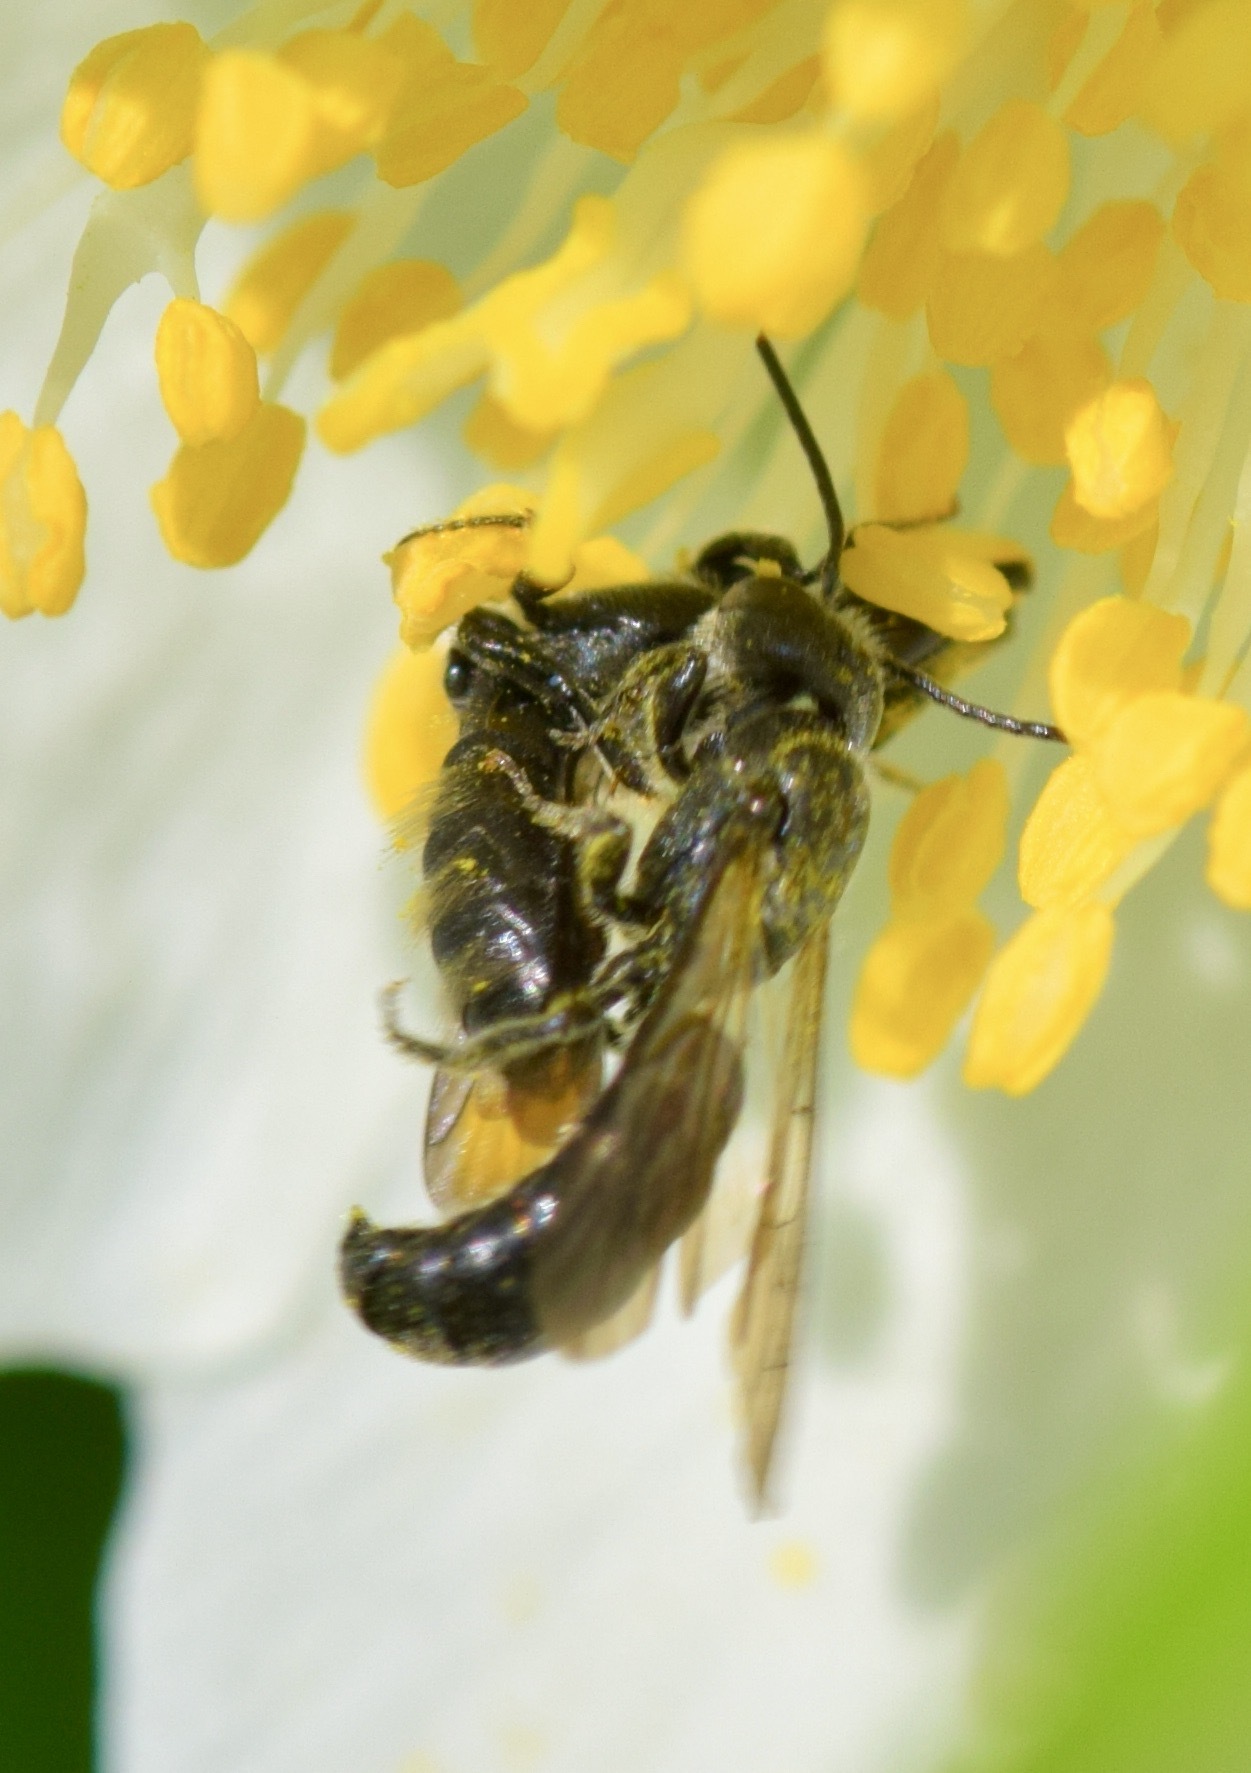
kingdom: Animalia
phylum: Arthropoda
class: Insecta
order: Hymenoptera
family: Megachilidae
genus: Chelostoma
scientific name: Chelostoma philadelphi
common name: Mock-orange scissor bee
